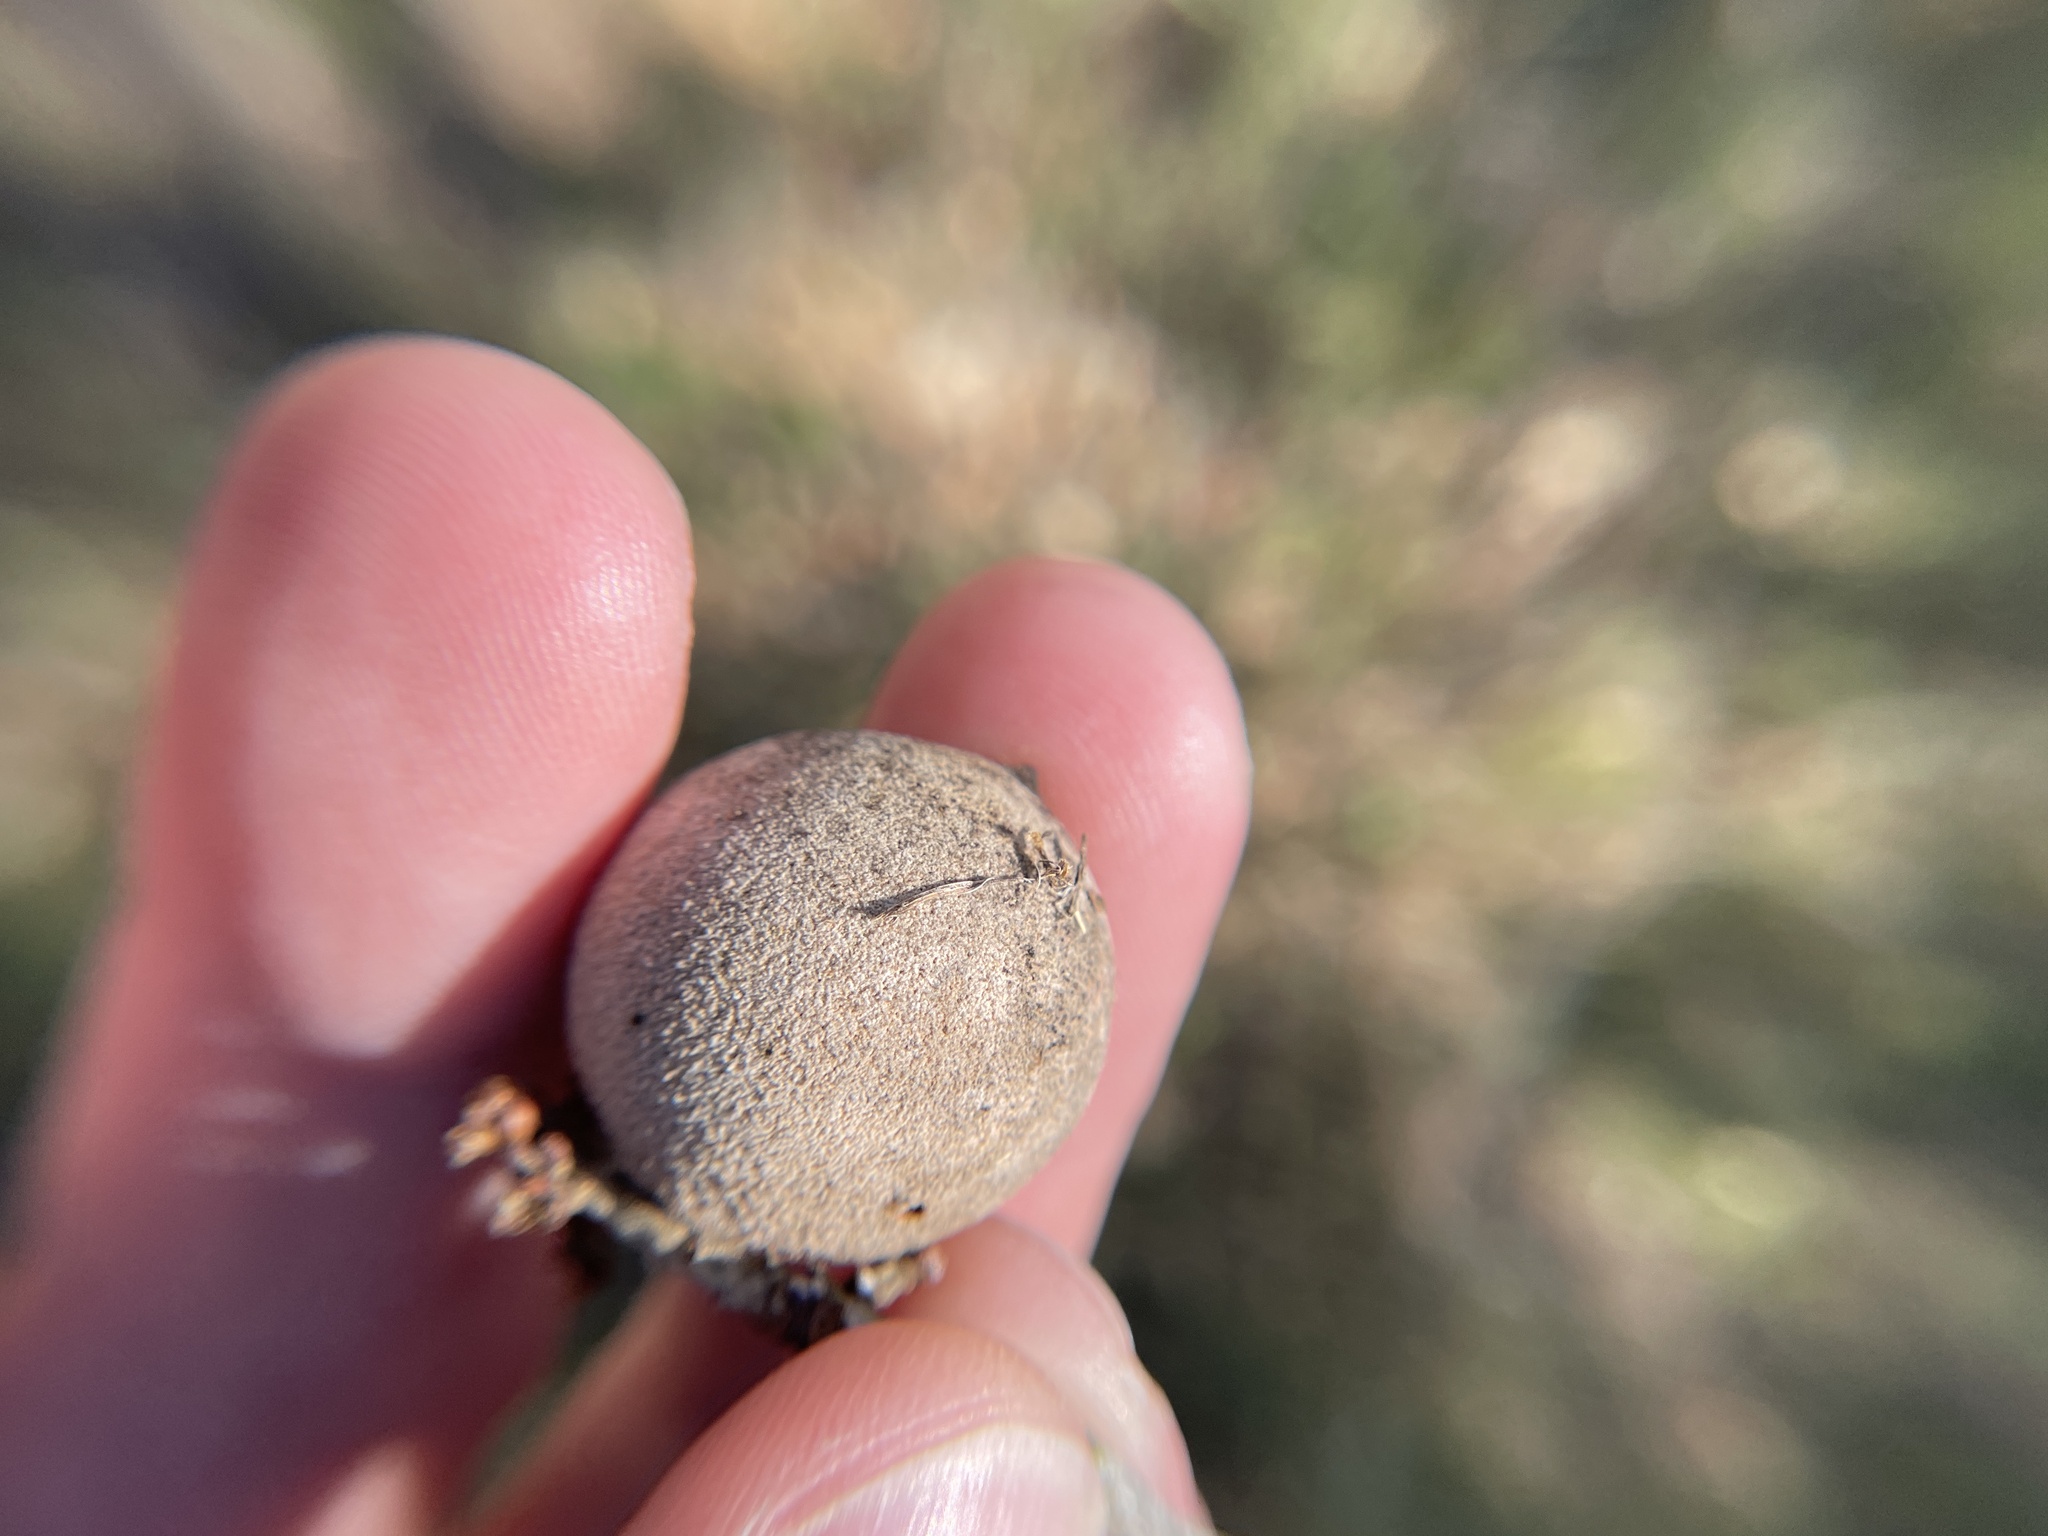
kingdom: Animalia
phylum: Arthropoda
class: Insecta
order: Hymenoptera
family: Cynipidae
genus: Disholcaspis
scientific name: Disholcaspis
